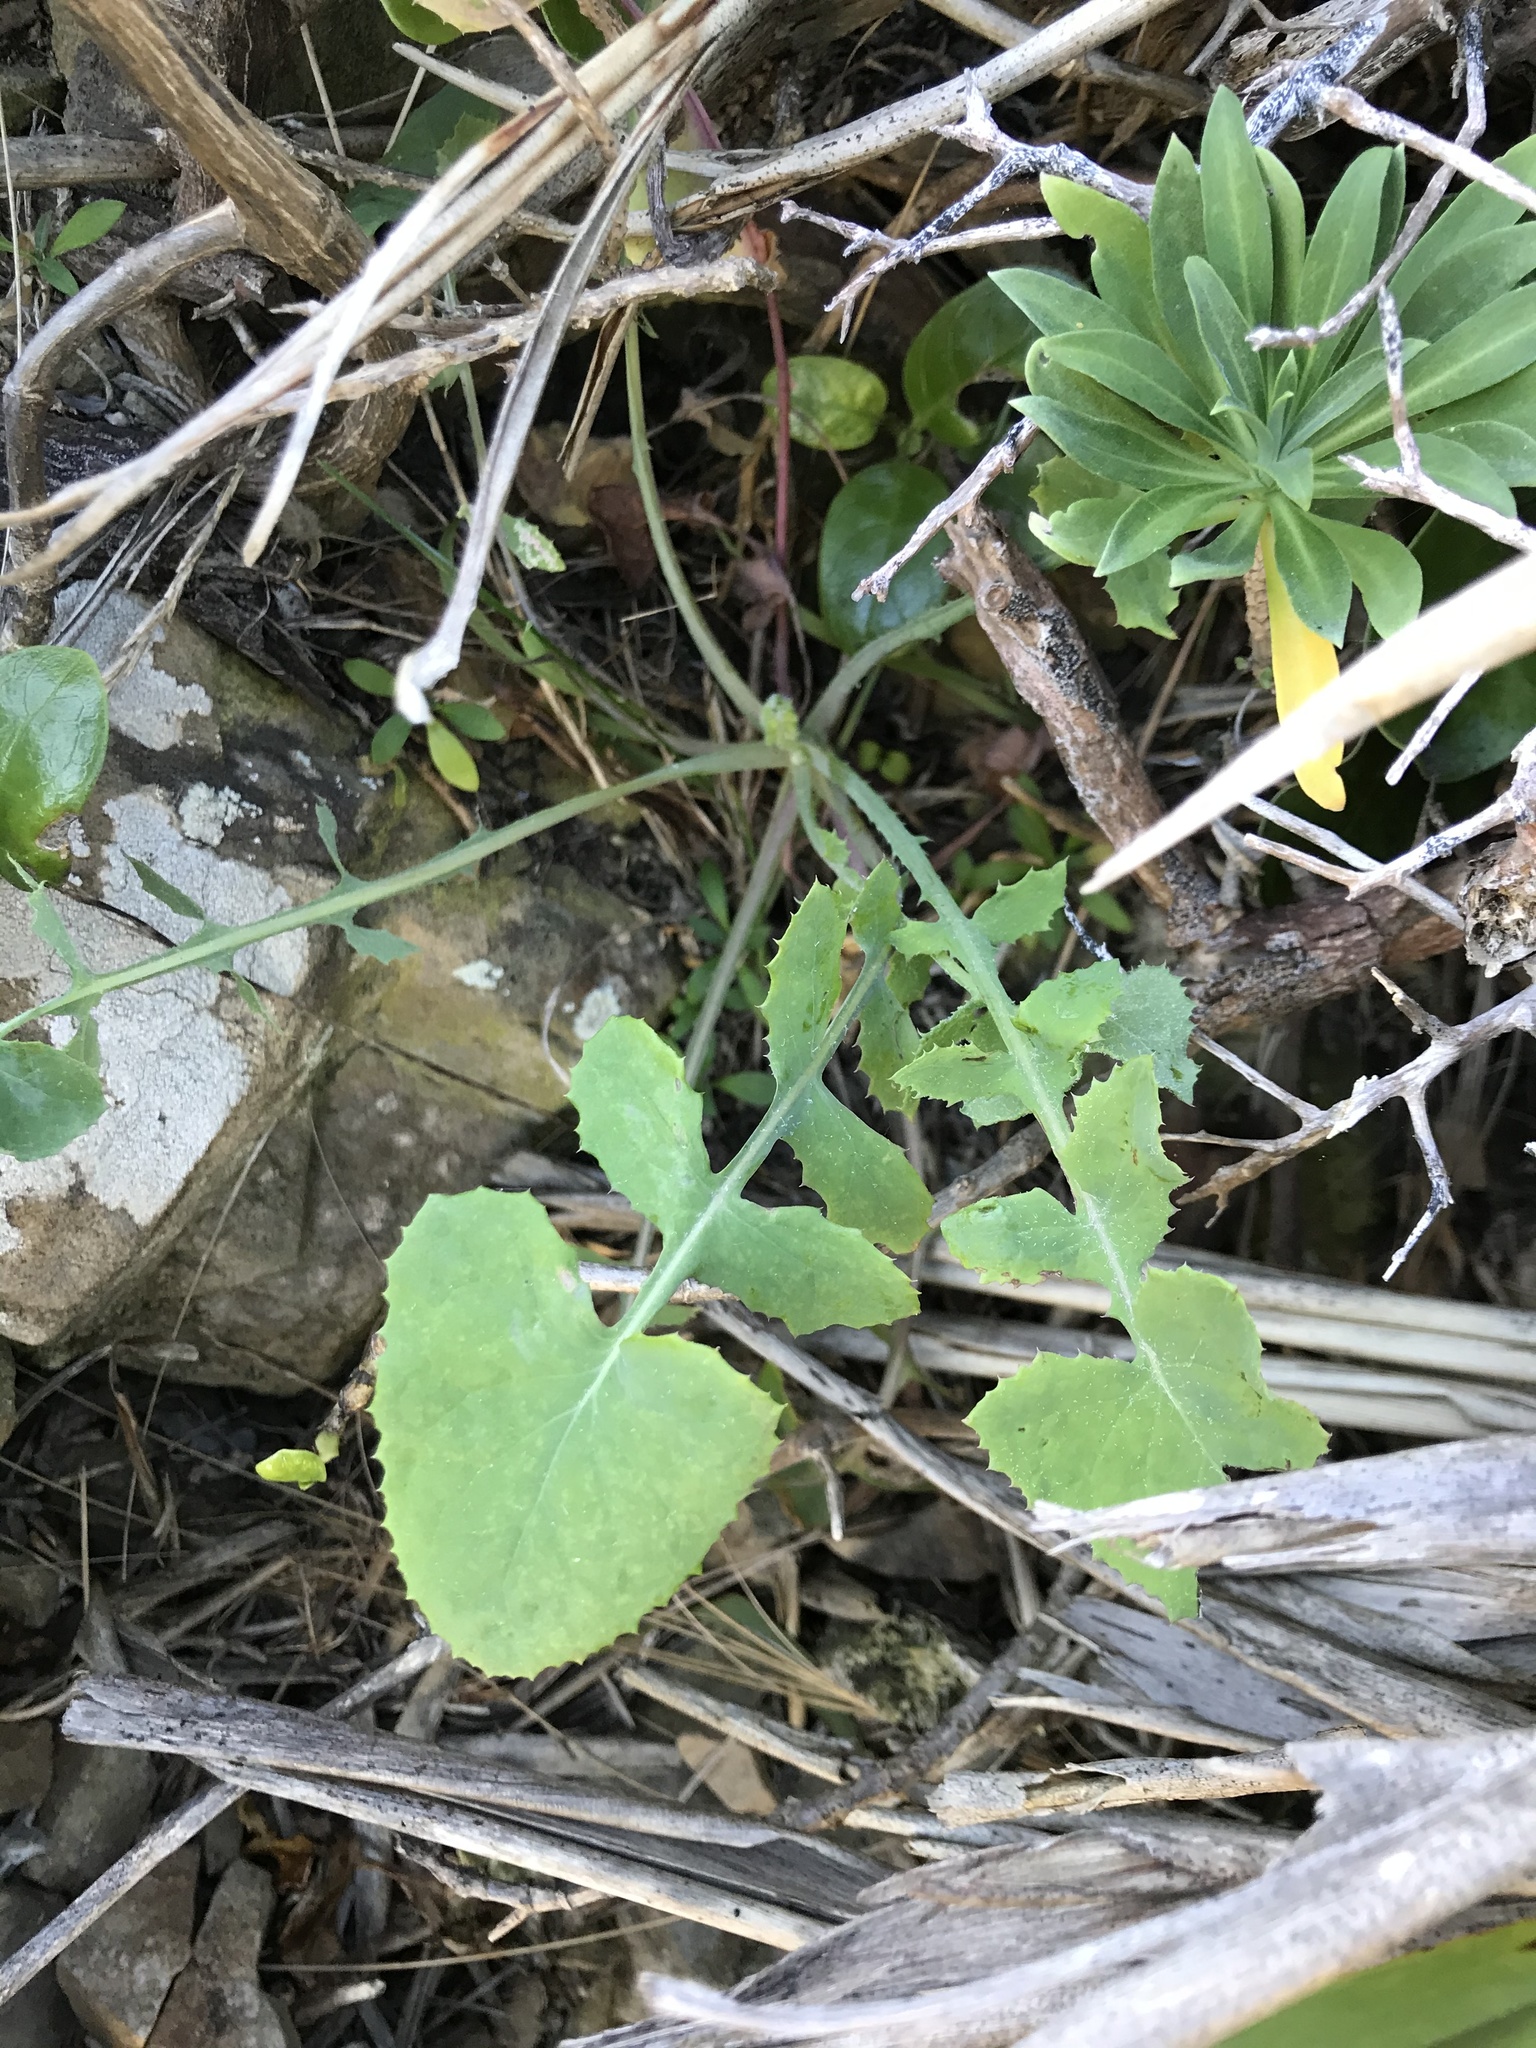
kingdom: Plantae
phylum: Tracheophyta
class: Magnoliopsida
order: Asterales
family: Asteraceae
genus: Sonchus
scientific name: Sonchus oleraceus
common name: Common sowthistle
